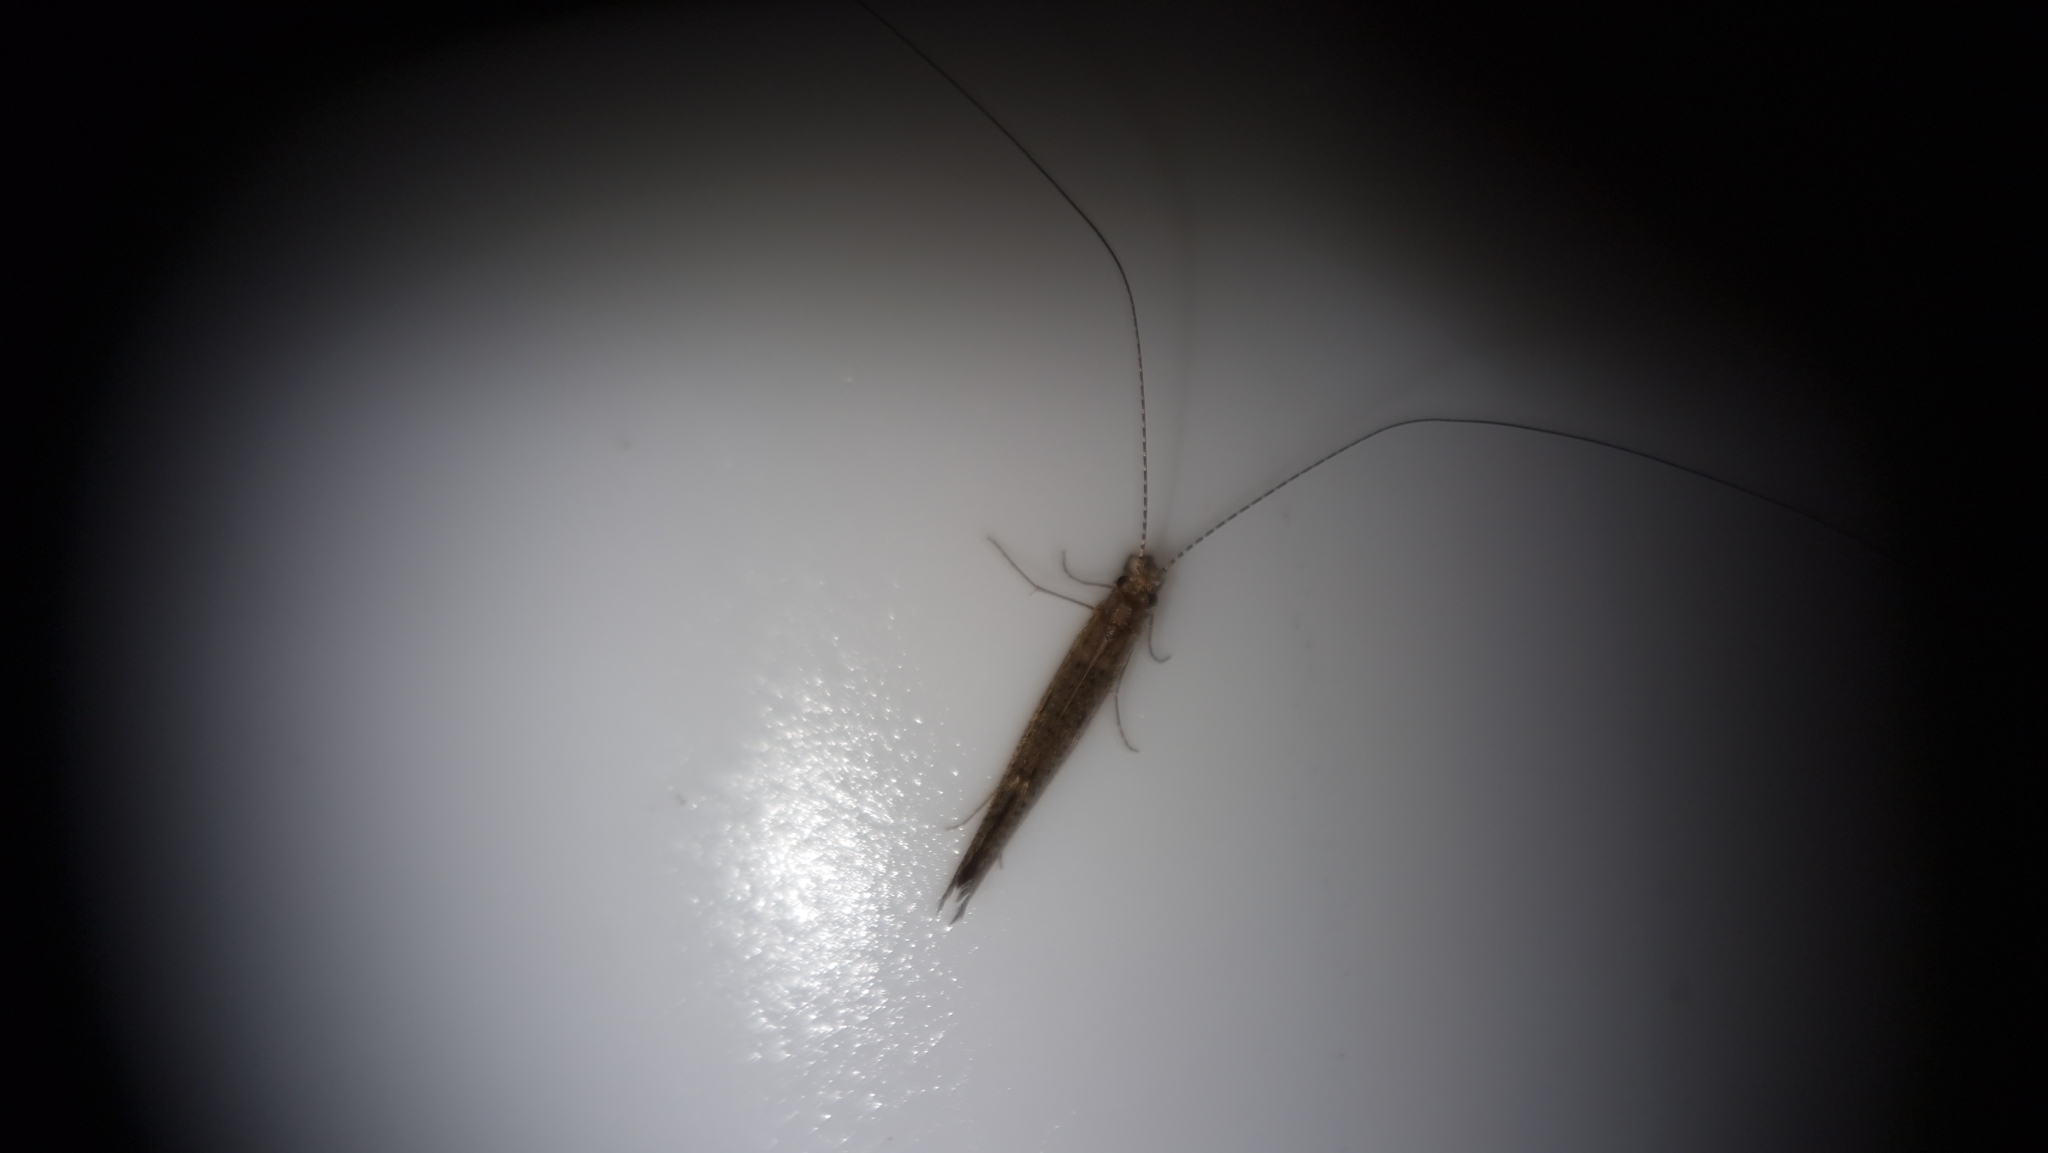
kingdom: Animalia
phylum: Arthropoda
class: Insecta
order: Trichoptera
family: Leptoceridae
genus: Leptocerus
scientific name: Leptocerus tineiformis
